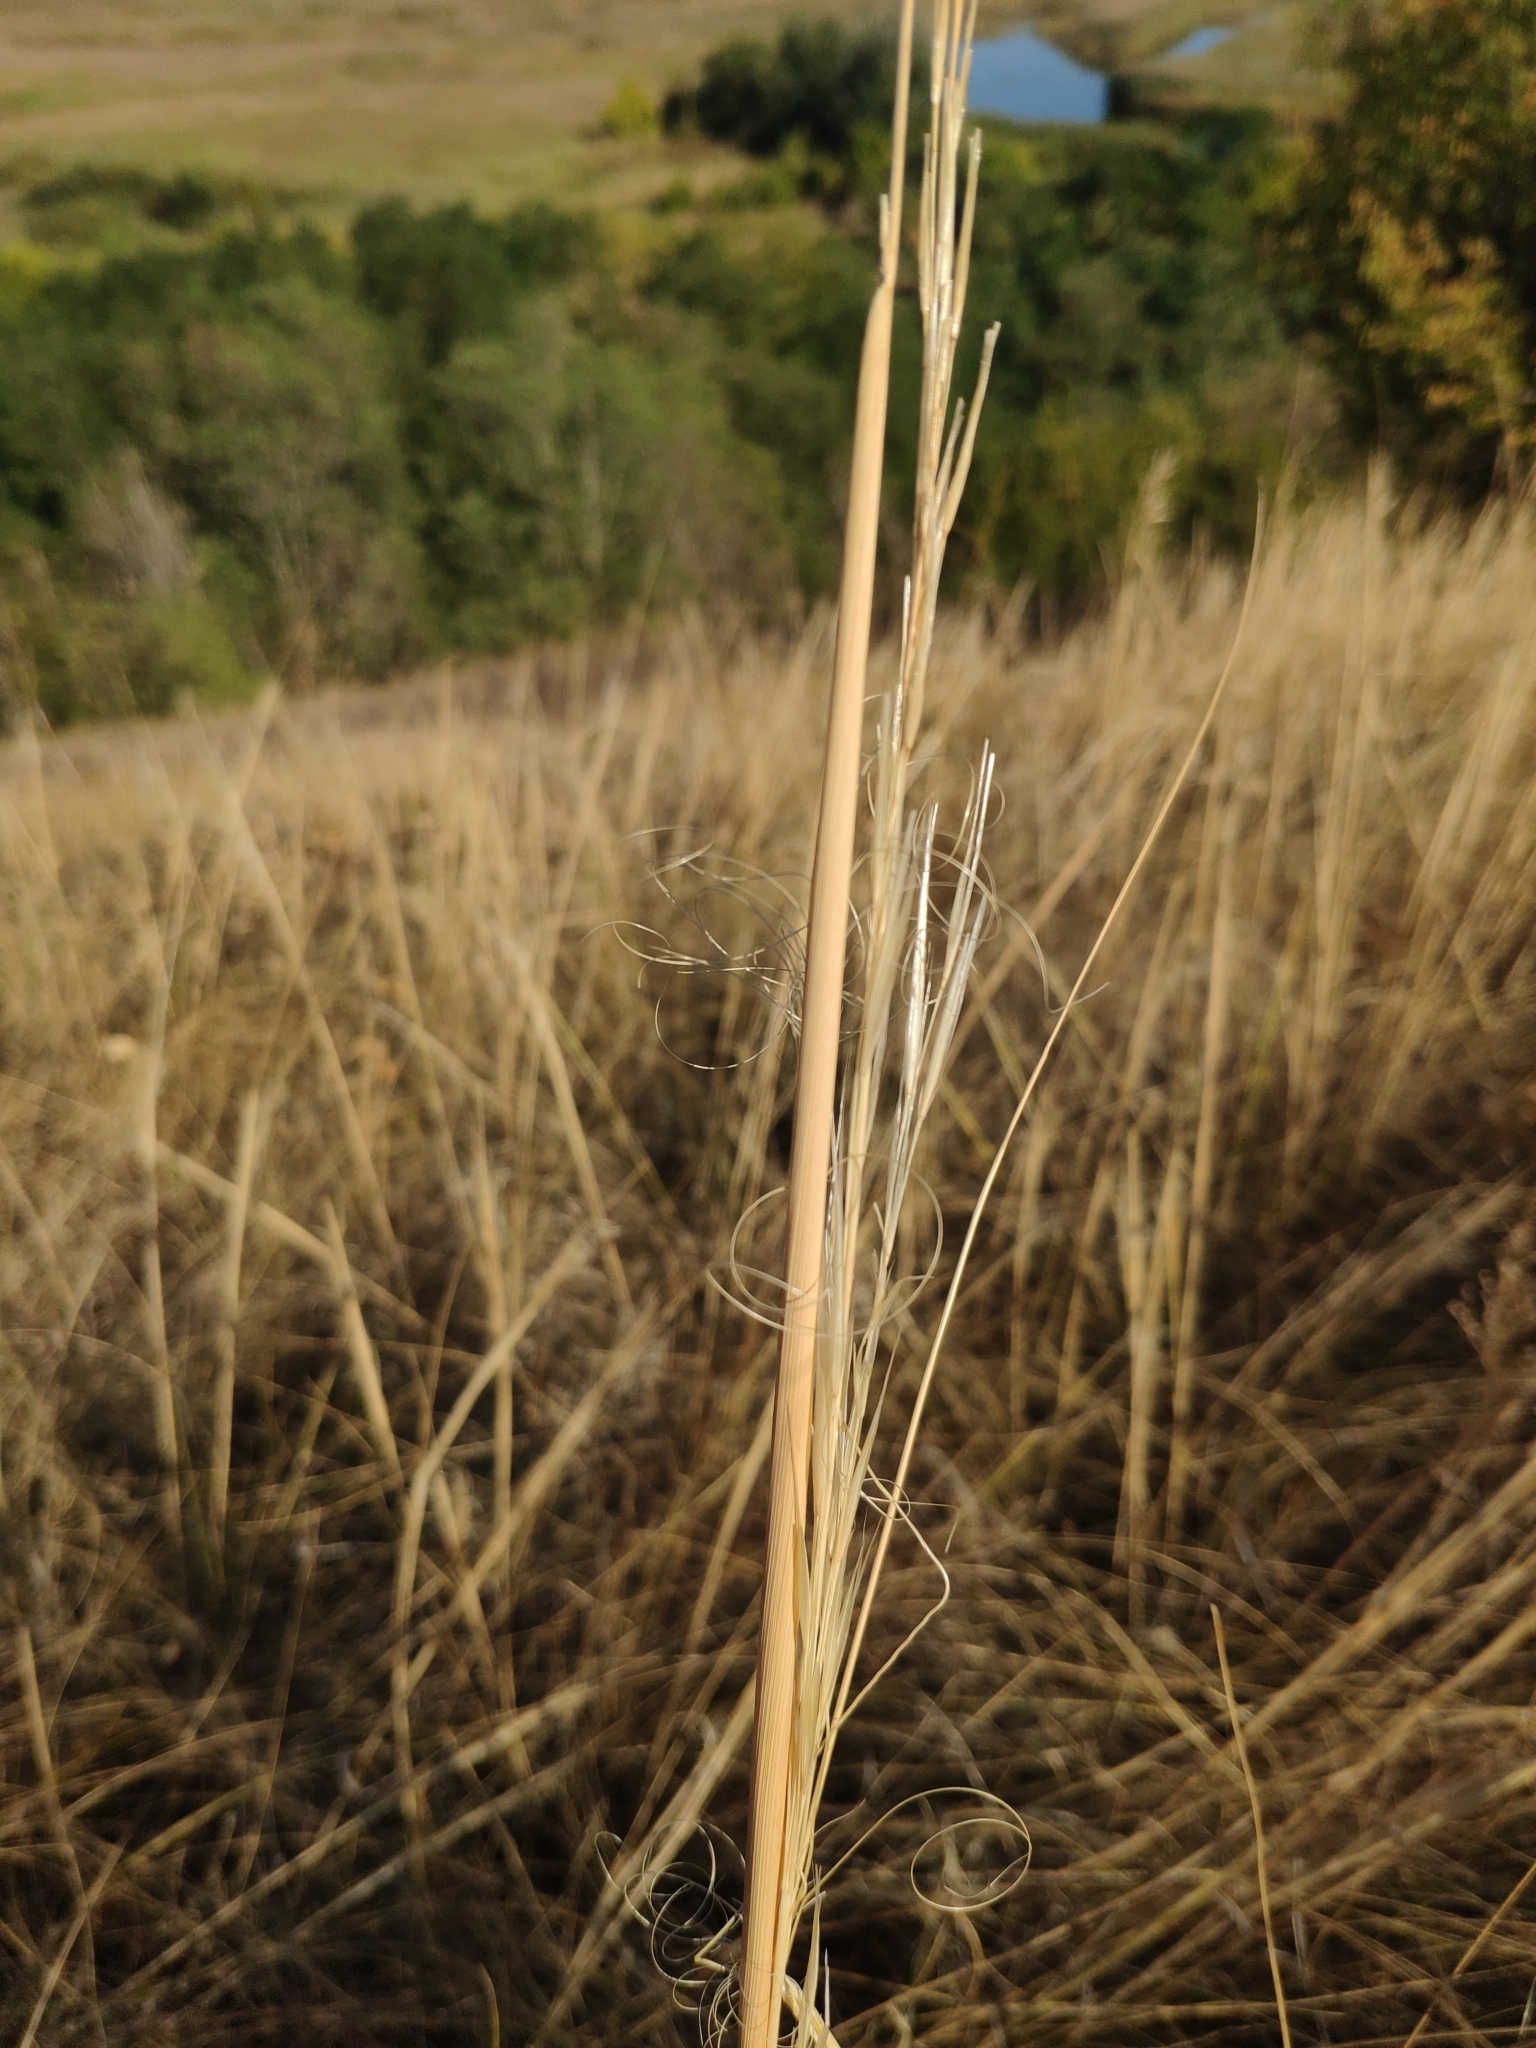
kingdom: Plantae
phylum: Tracheophyta
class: Liliopsida
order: Poales
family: Poaceae
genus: Stipa
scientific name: Stipa capillata
